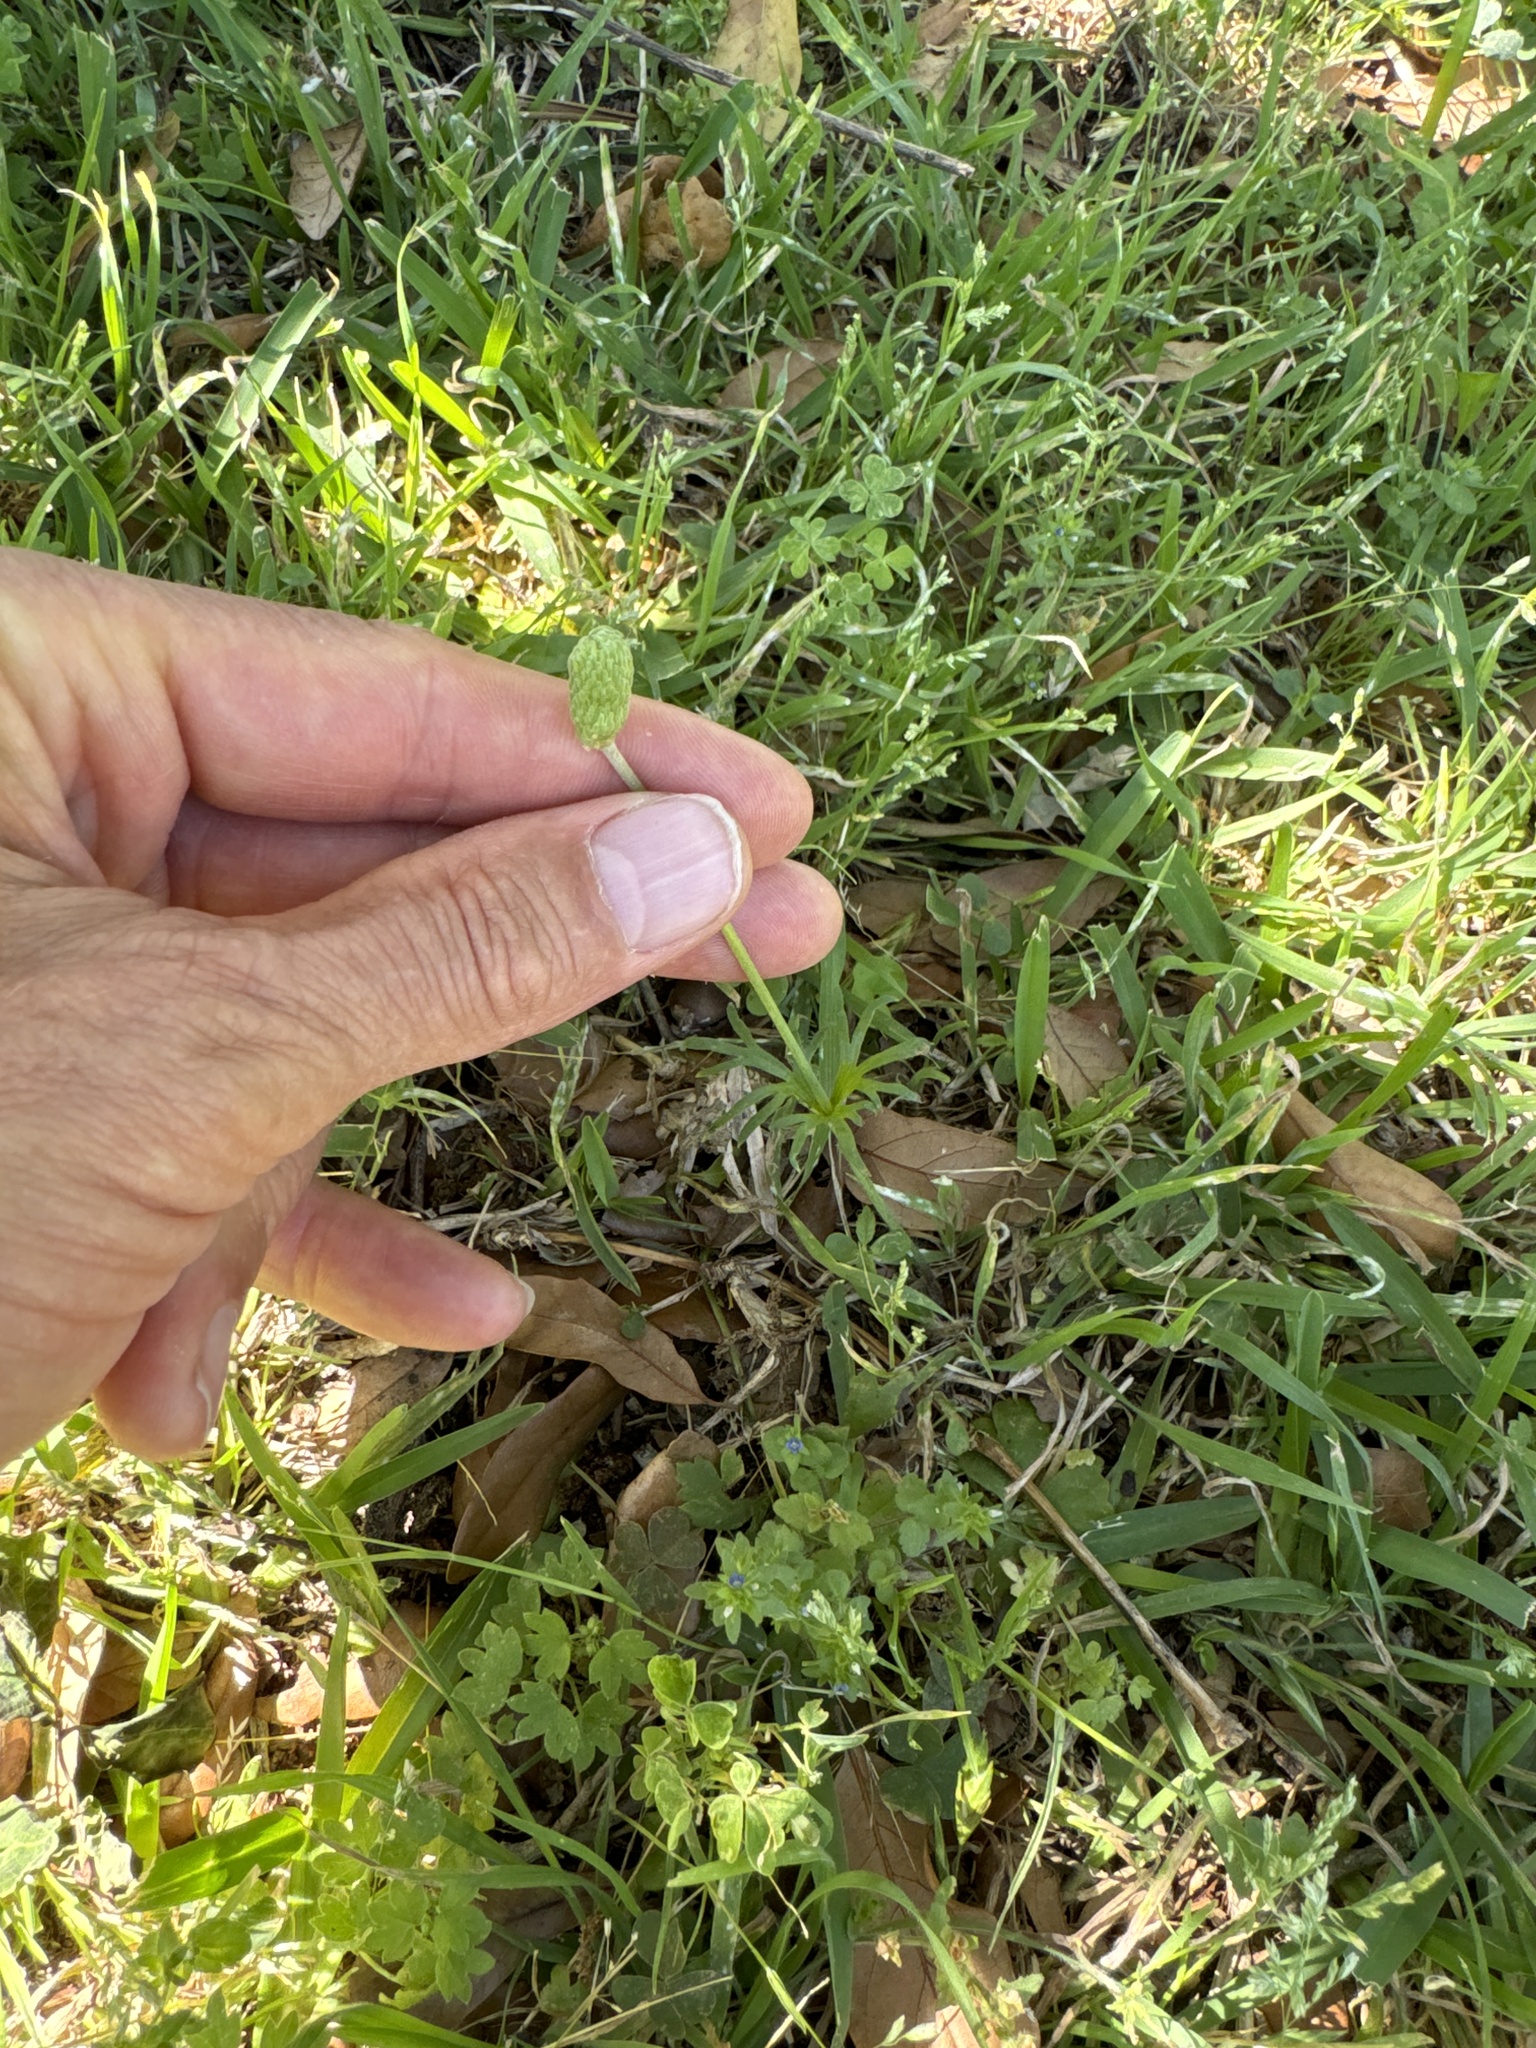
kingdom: Plantae
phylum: Tracheophyta
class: Magnoliopsida
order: Ranunculales
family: Ranunculaceae
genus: Anemone
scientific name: Anemone berlandieri
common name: Ten-petal anemone
